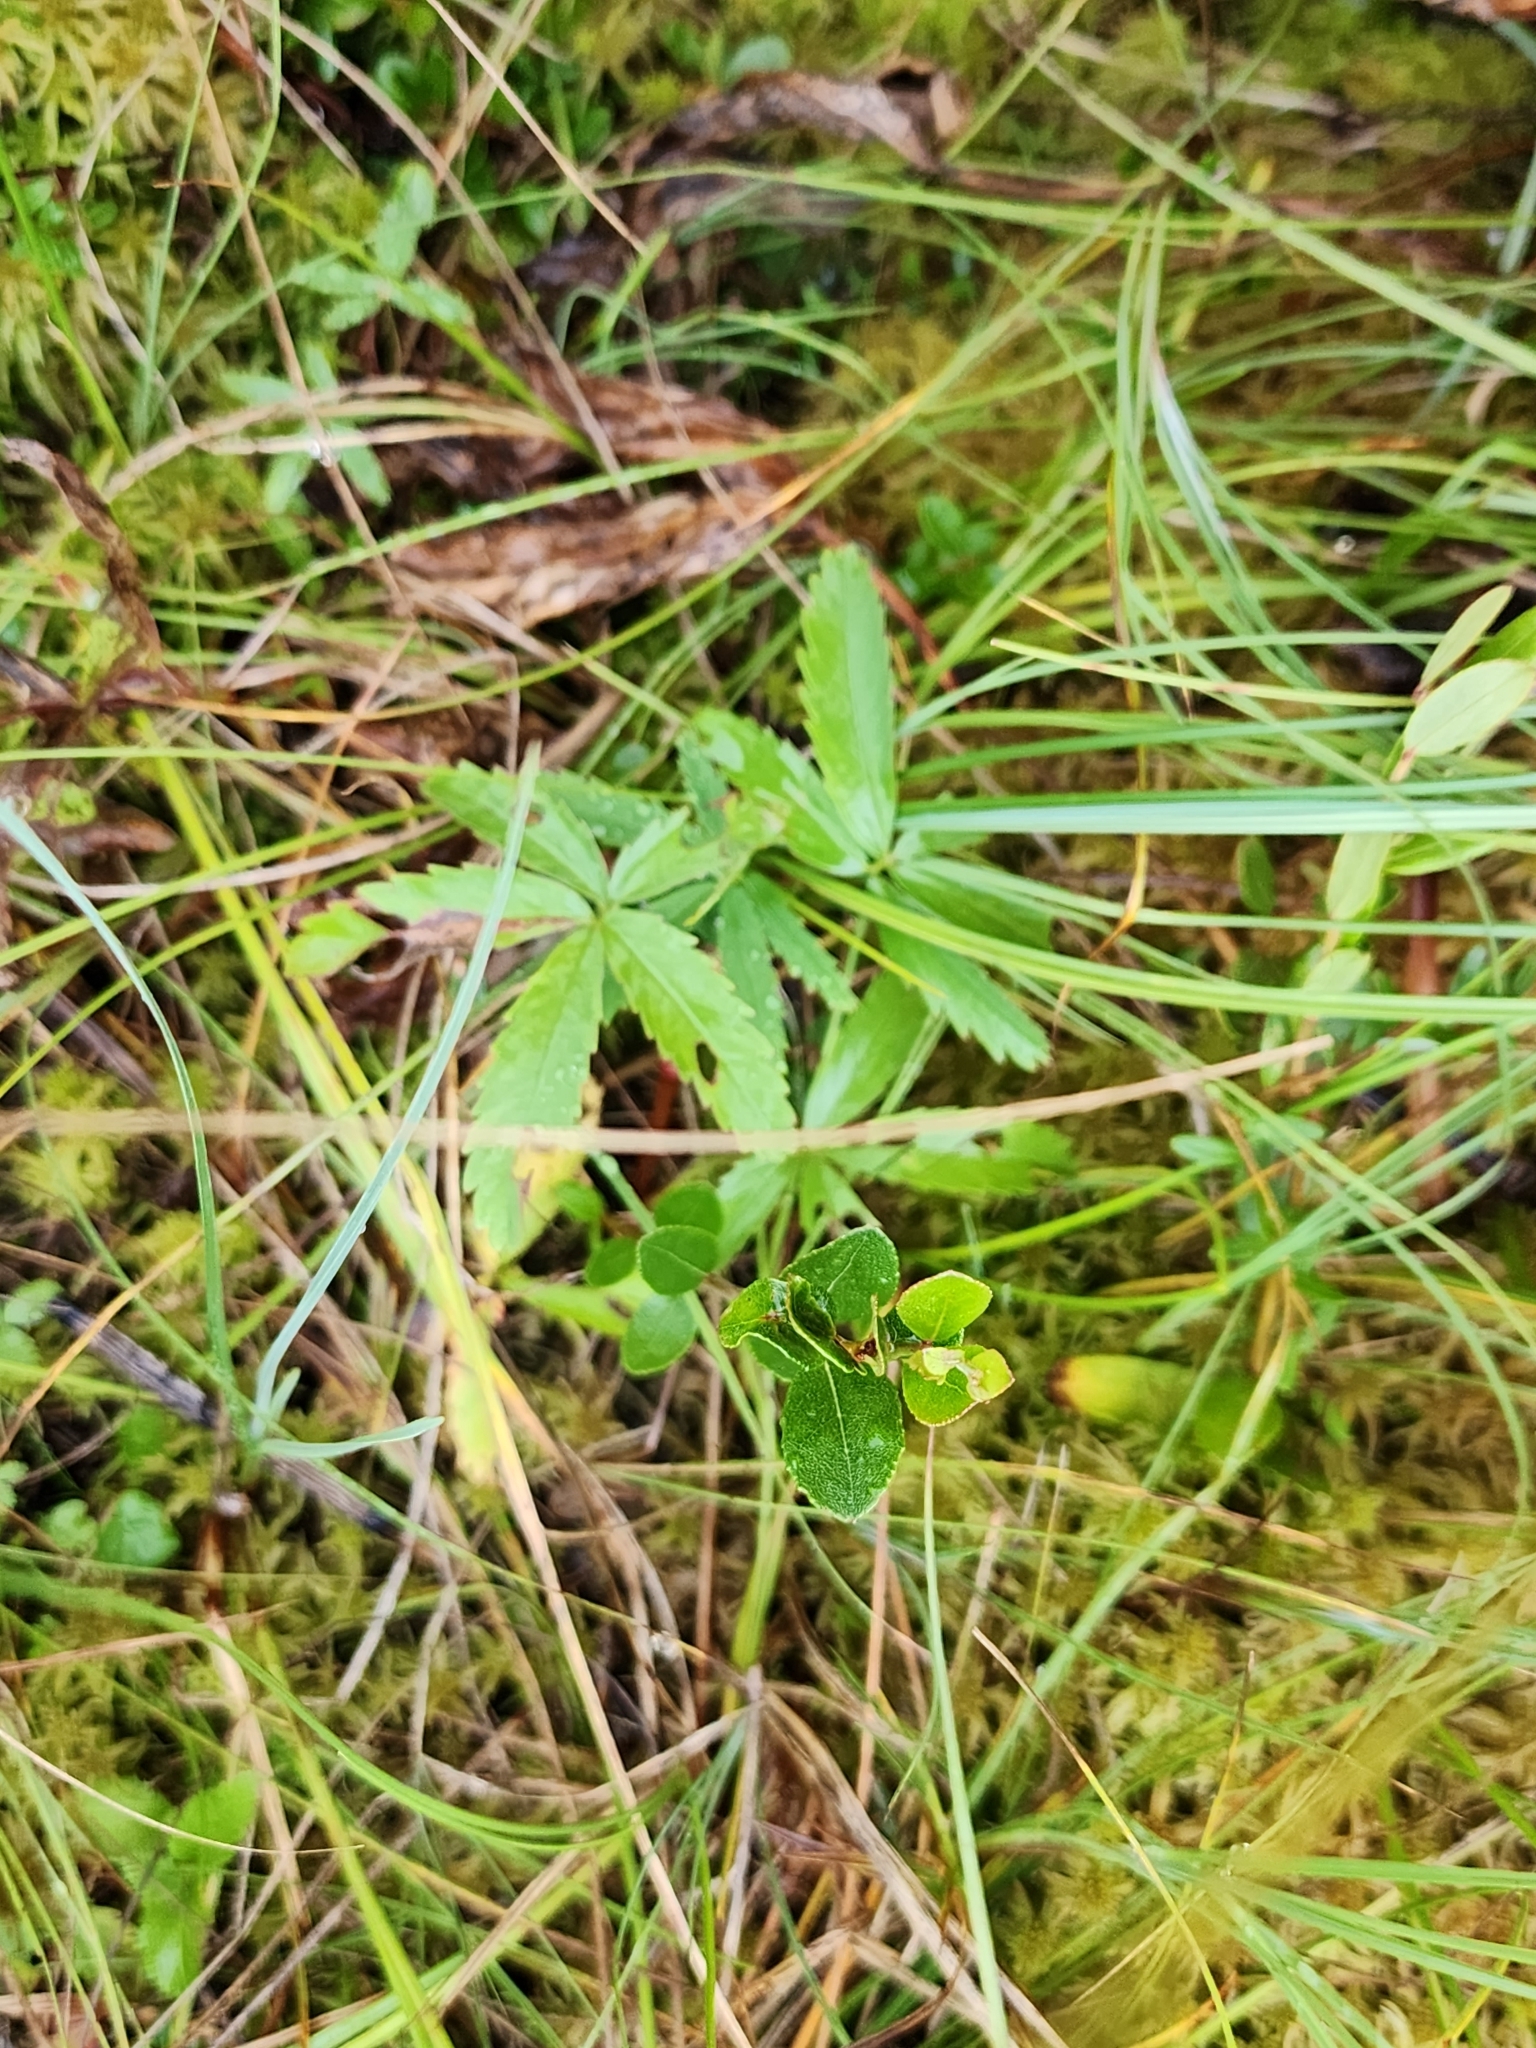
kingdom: Plantae
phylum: Tracheophyta
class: Magnoliopsida
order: Rosales
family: Rosaceae
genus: Comarum
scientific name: Comarum palustre
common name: Marsh cinquefoil
